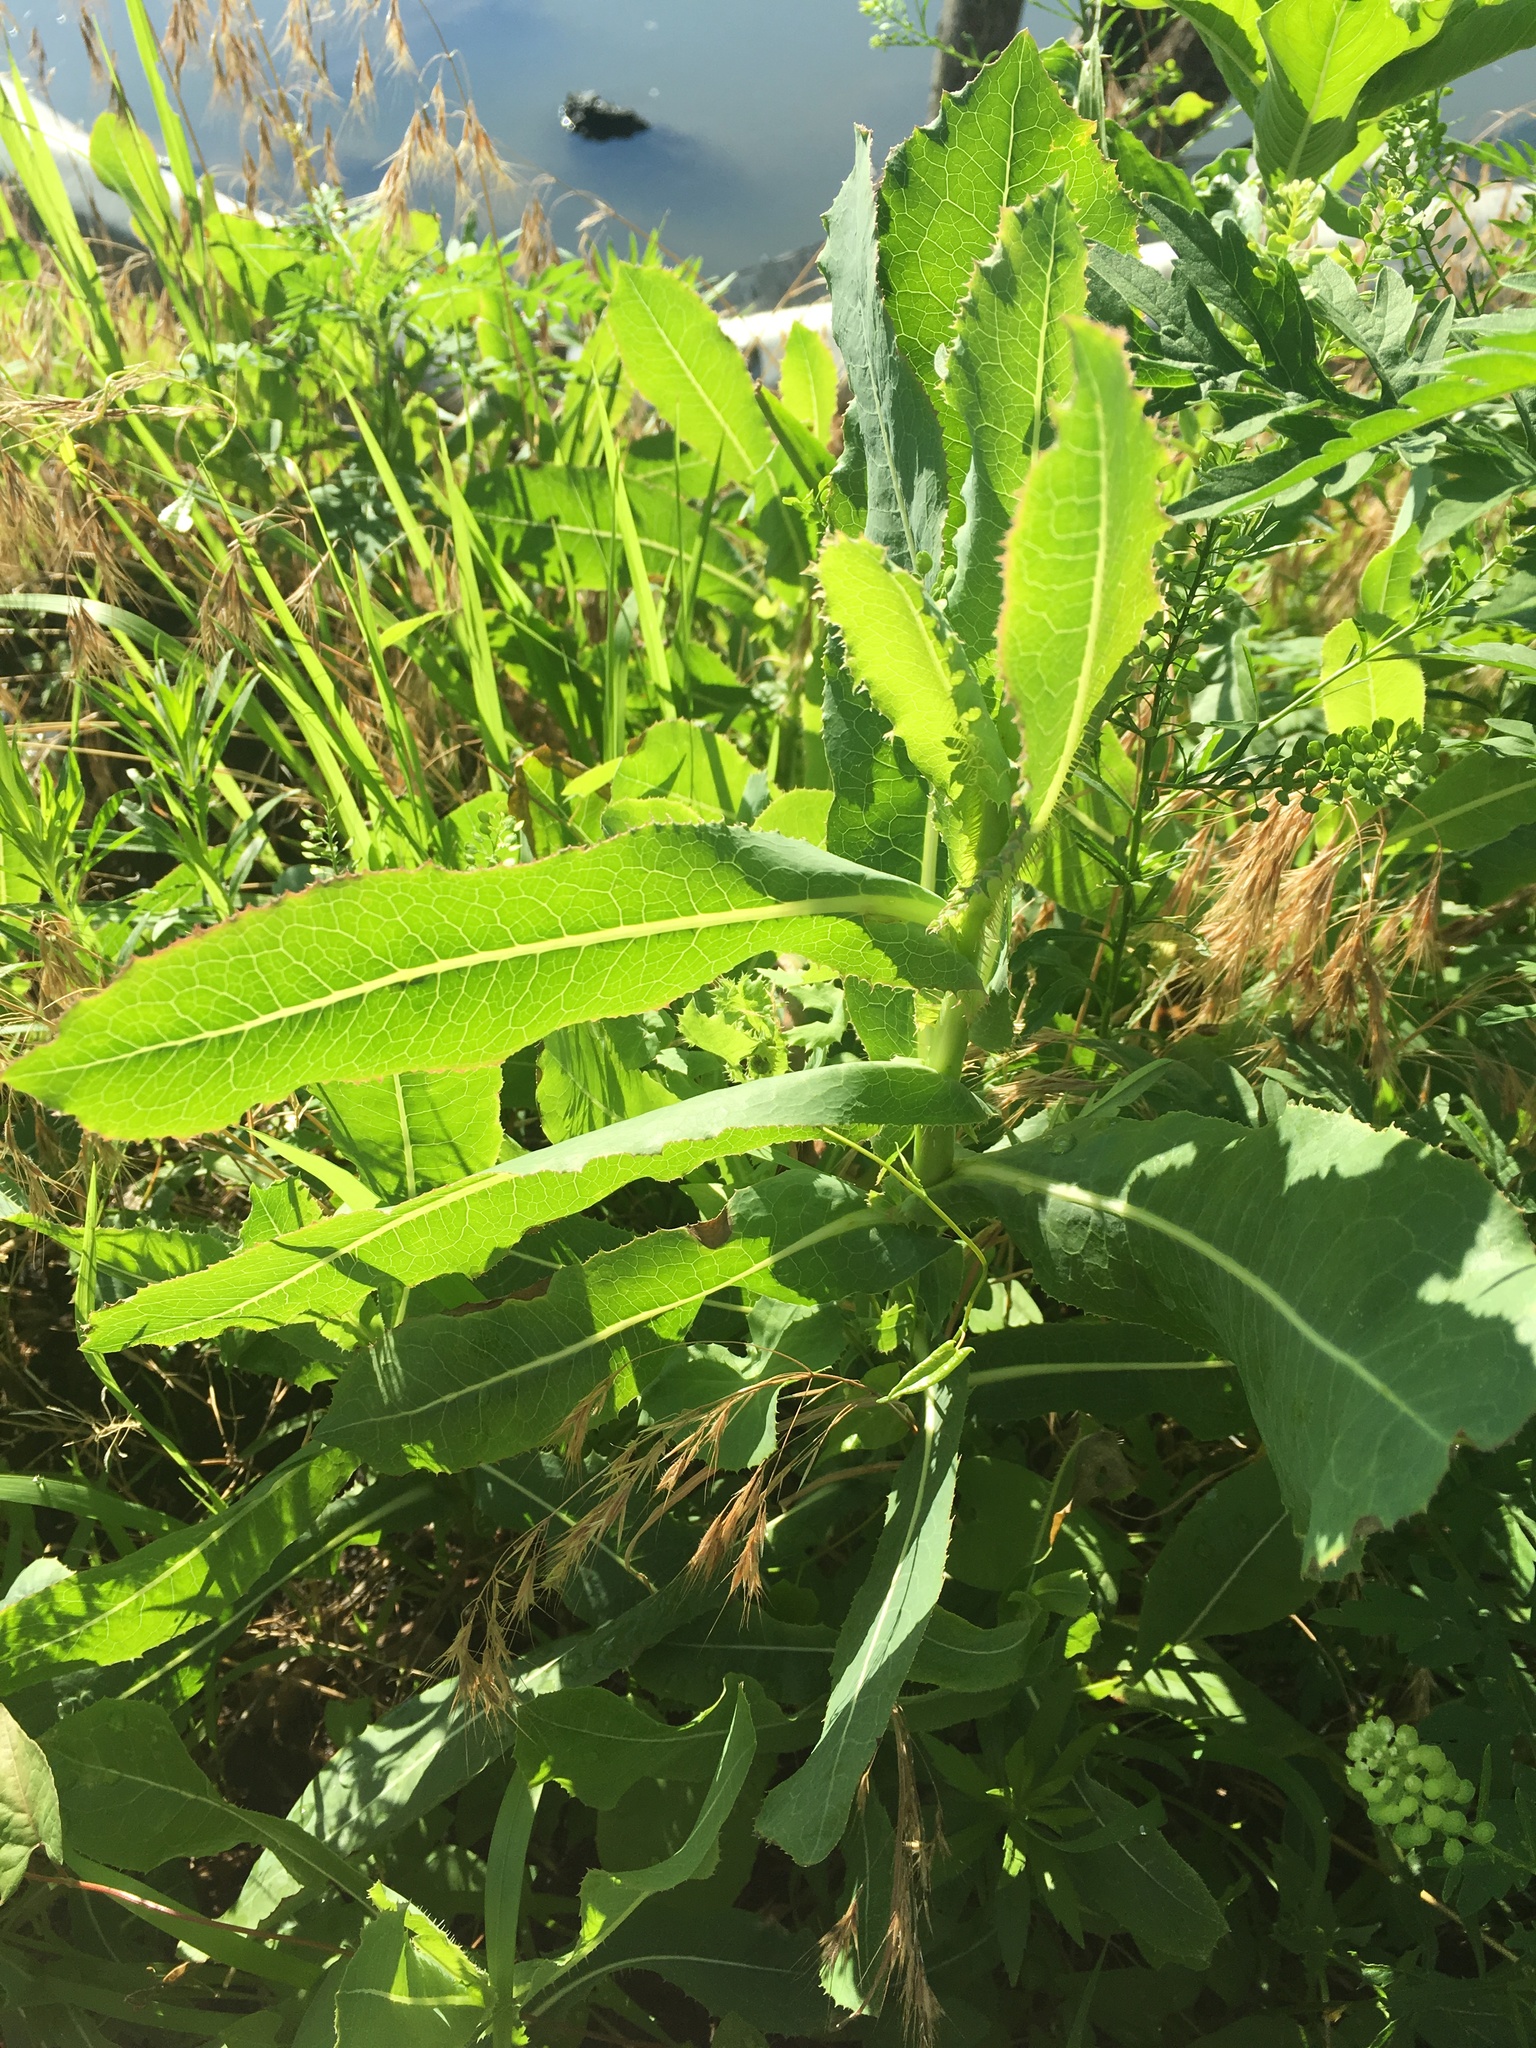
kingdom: Plantae
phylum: Tracheophyta
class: Magnoliopsida
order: Asterales
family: Asteraceae
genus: Lactuca
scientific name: Lactuca serriola
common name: Prickly lettuce
